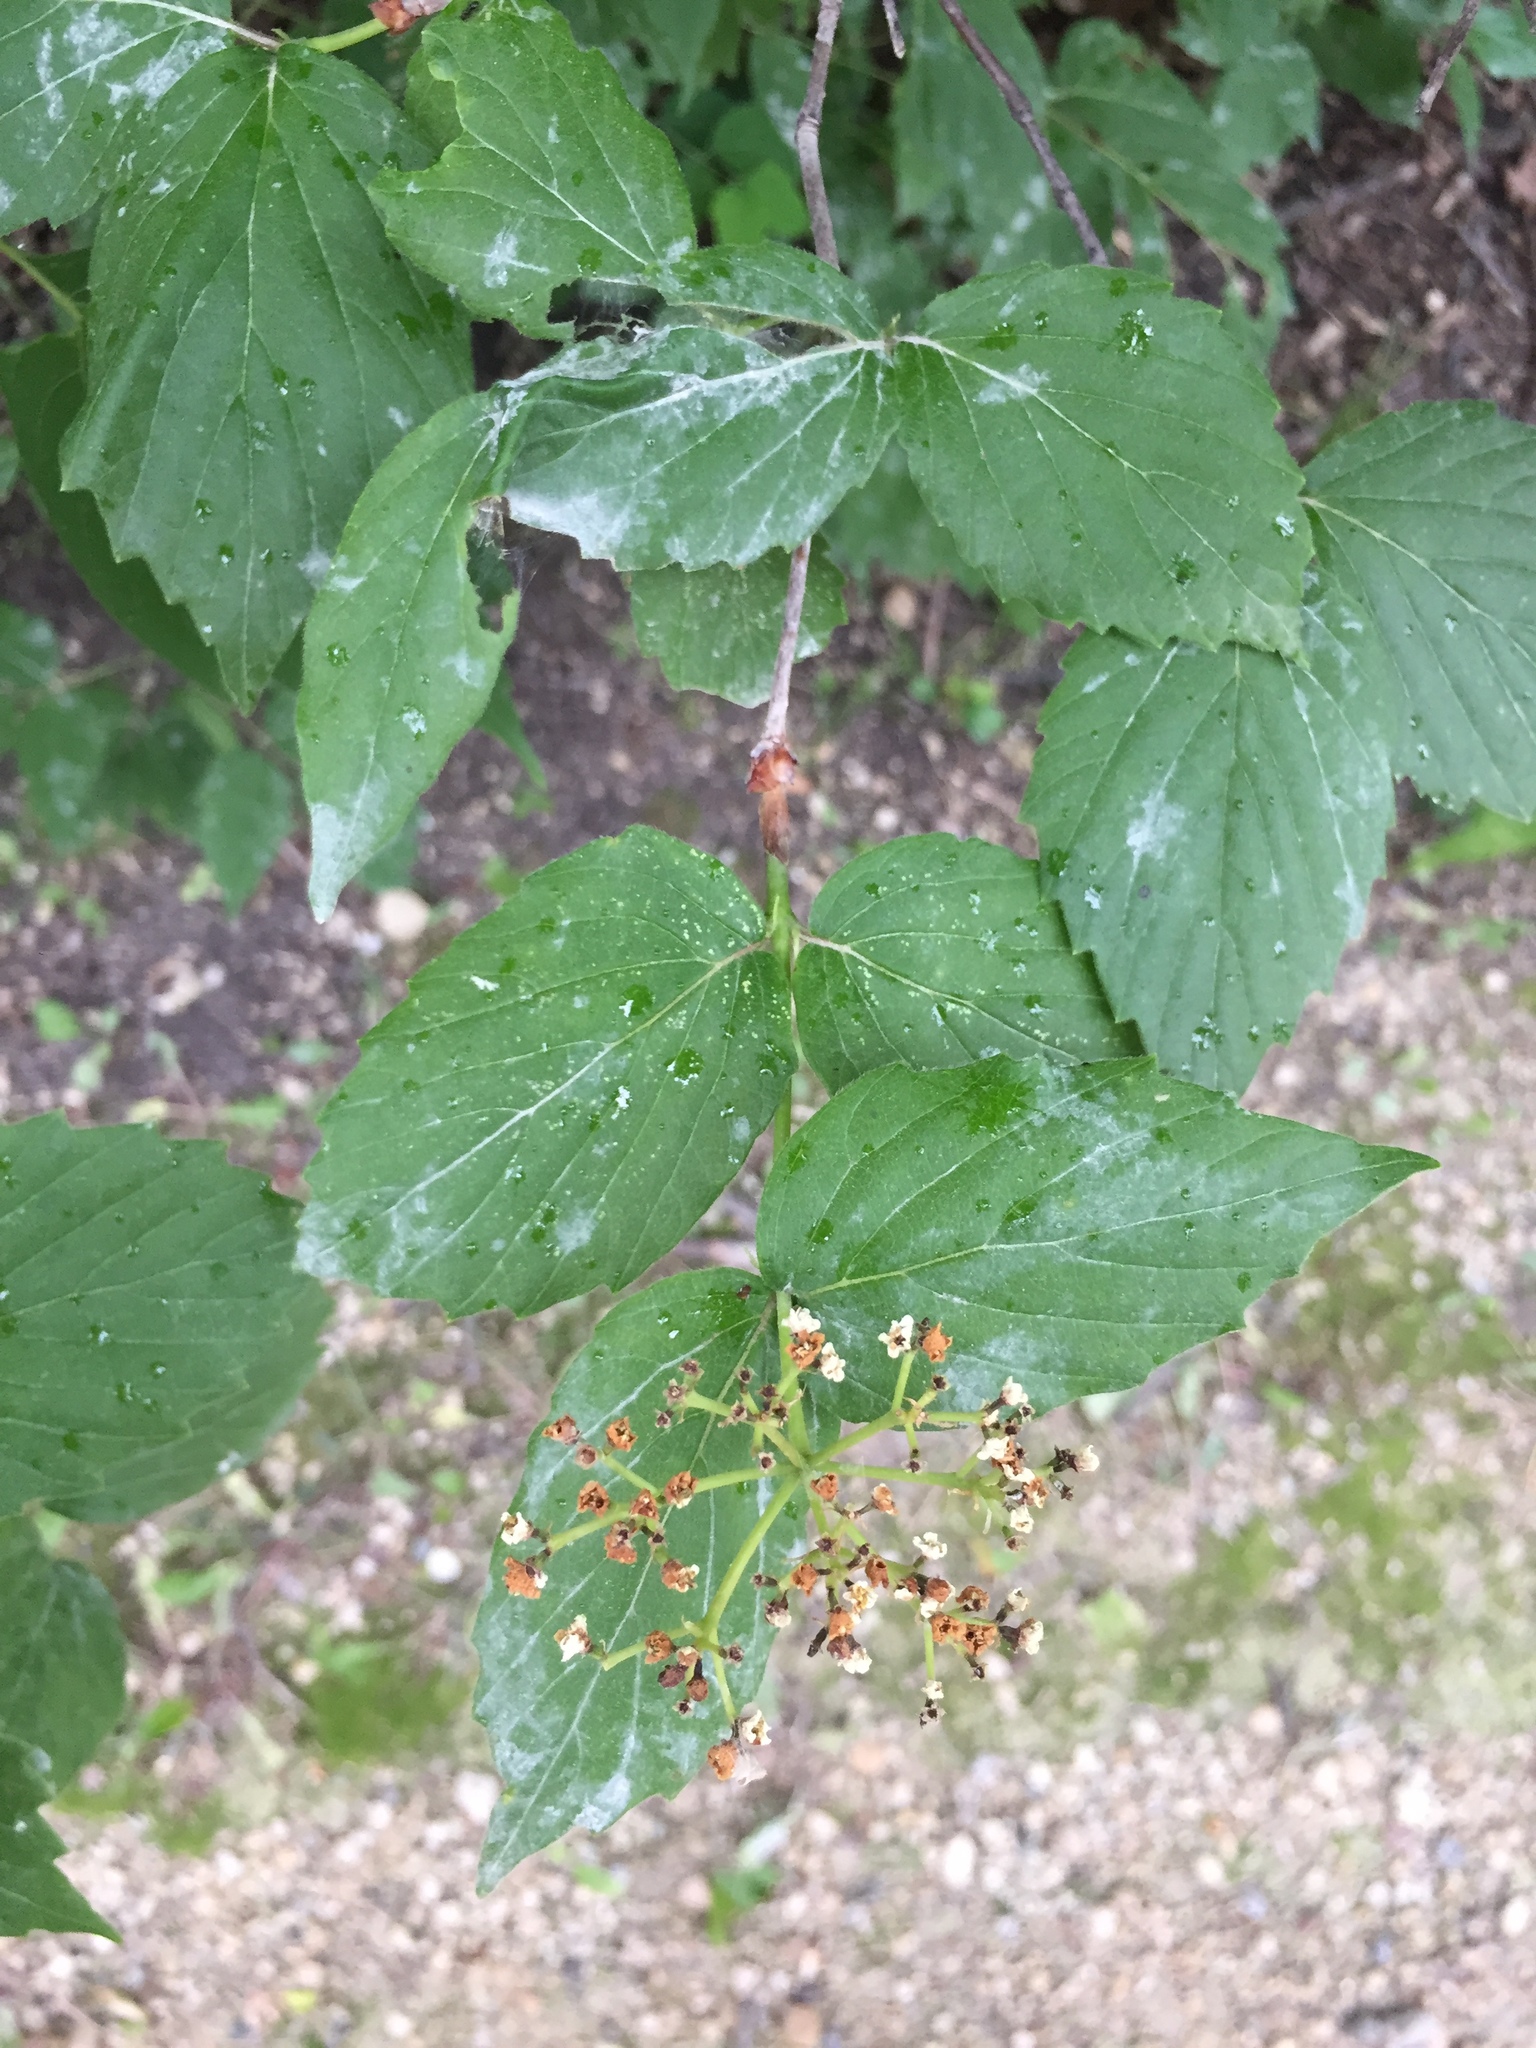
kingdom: Plantae
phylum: Tracheophyta
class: Magnoliopsida
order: Dipsacales
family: Viburnaceae
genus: Viburnum
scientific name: Viburnum rafinesqueanum
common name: Downy arrow-wood
